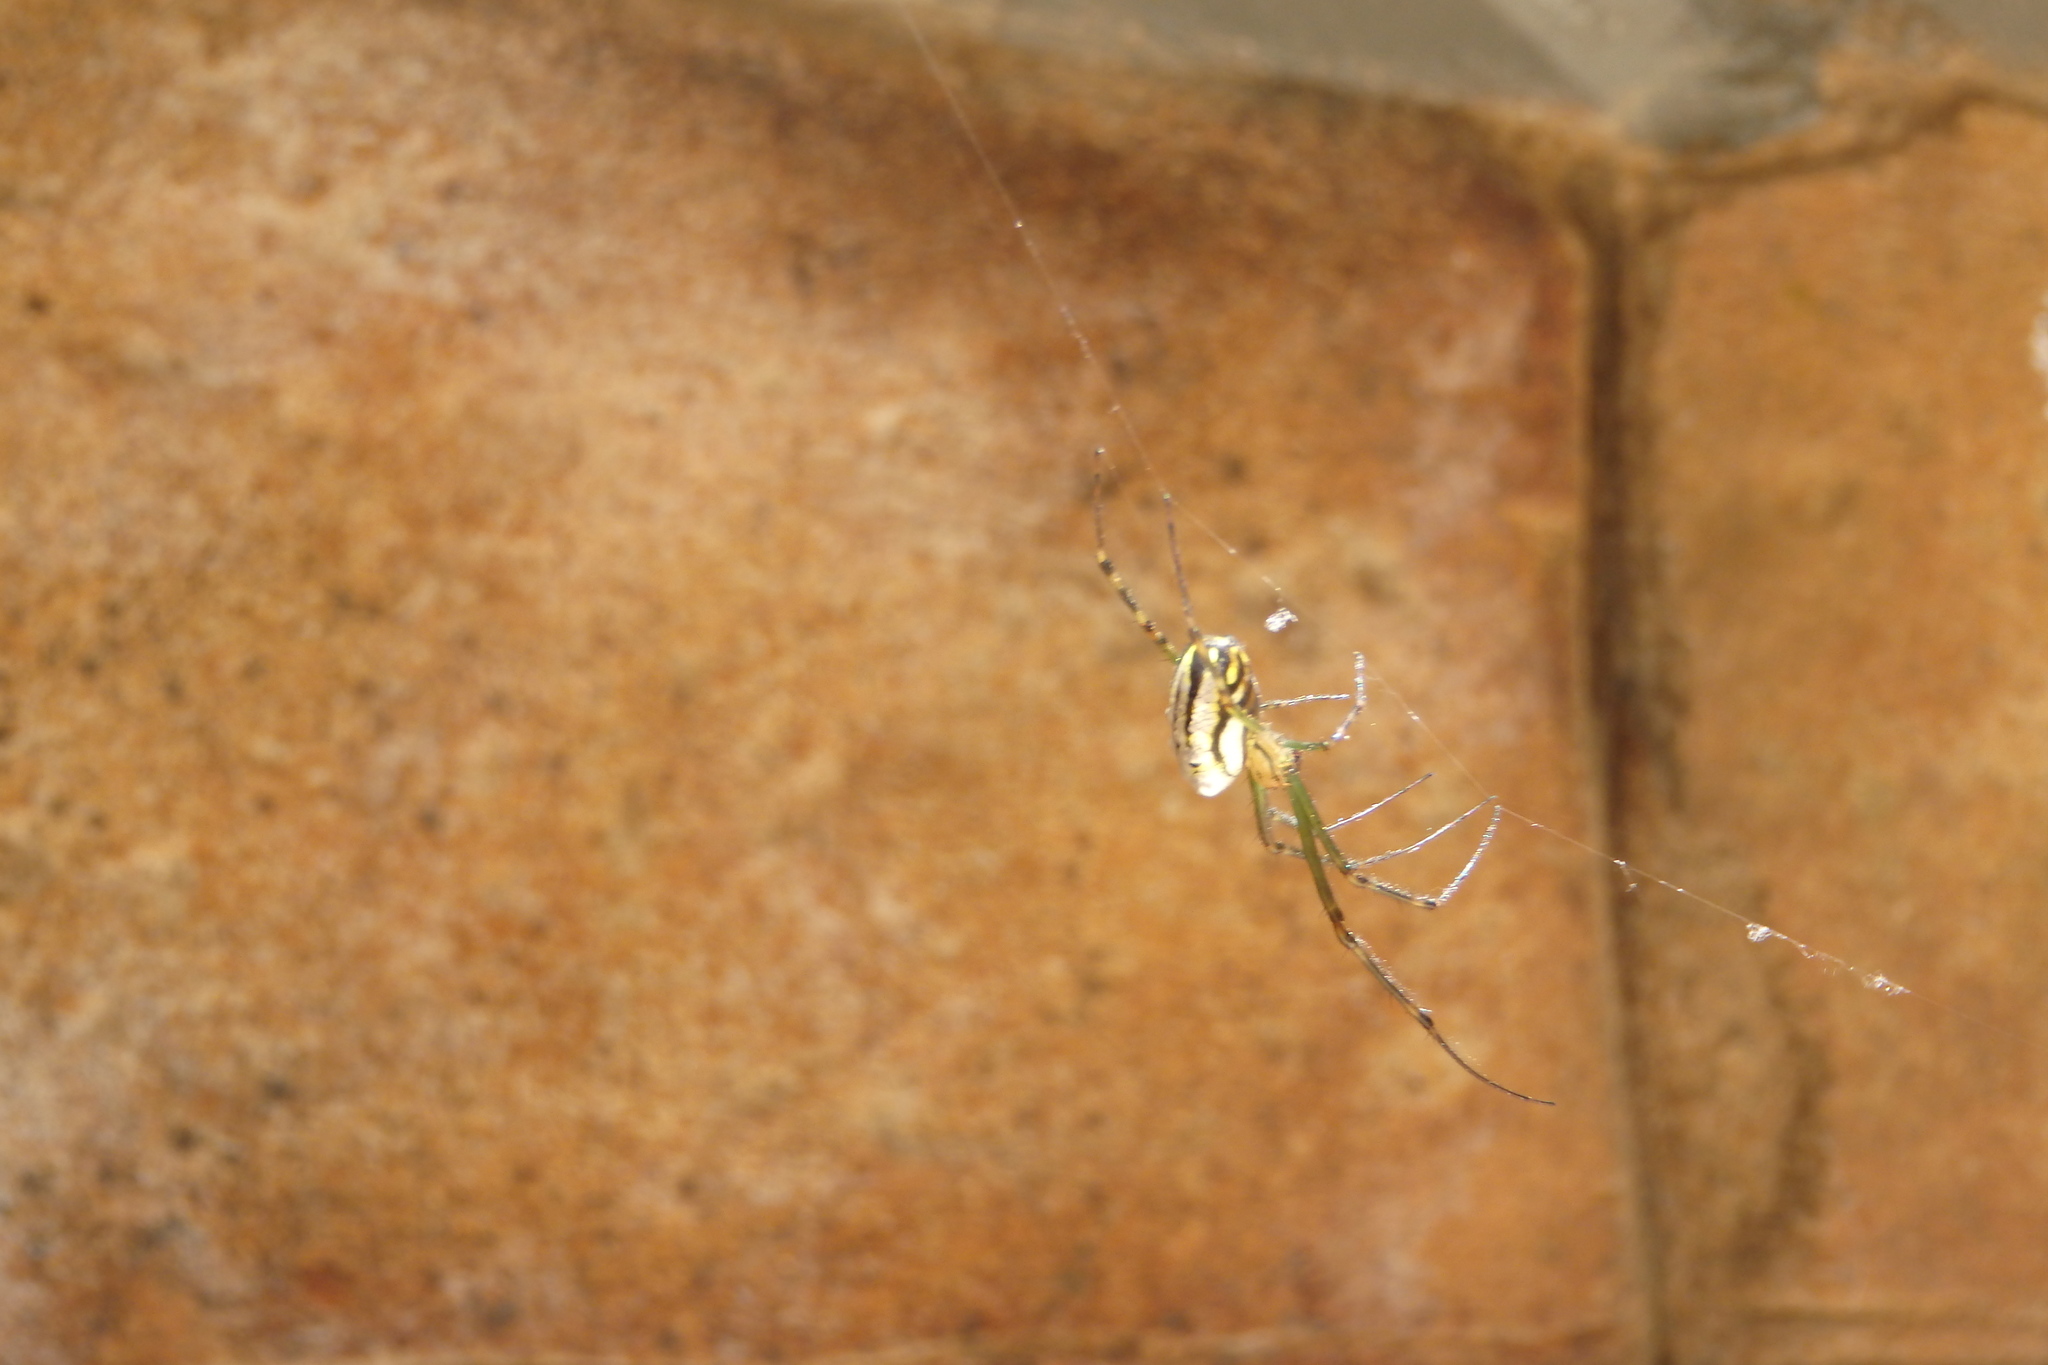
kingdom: Animalia
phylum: Arthropoda
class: Arachnida
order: Araneae
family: Tetragnathidae
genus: Leucauge
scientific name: Leucauge dromedaria
